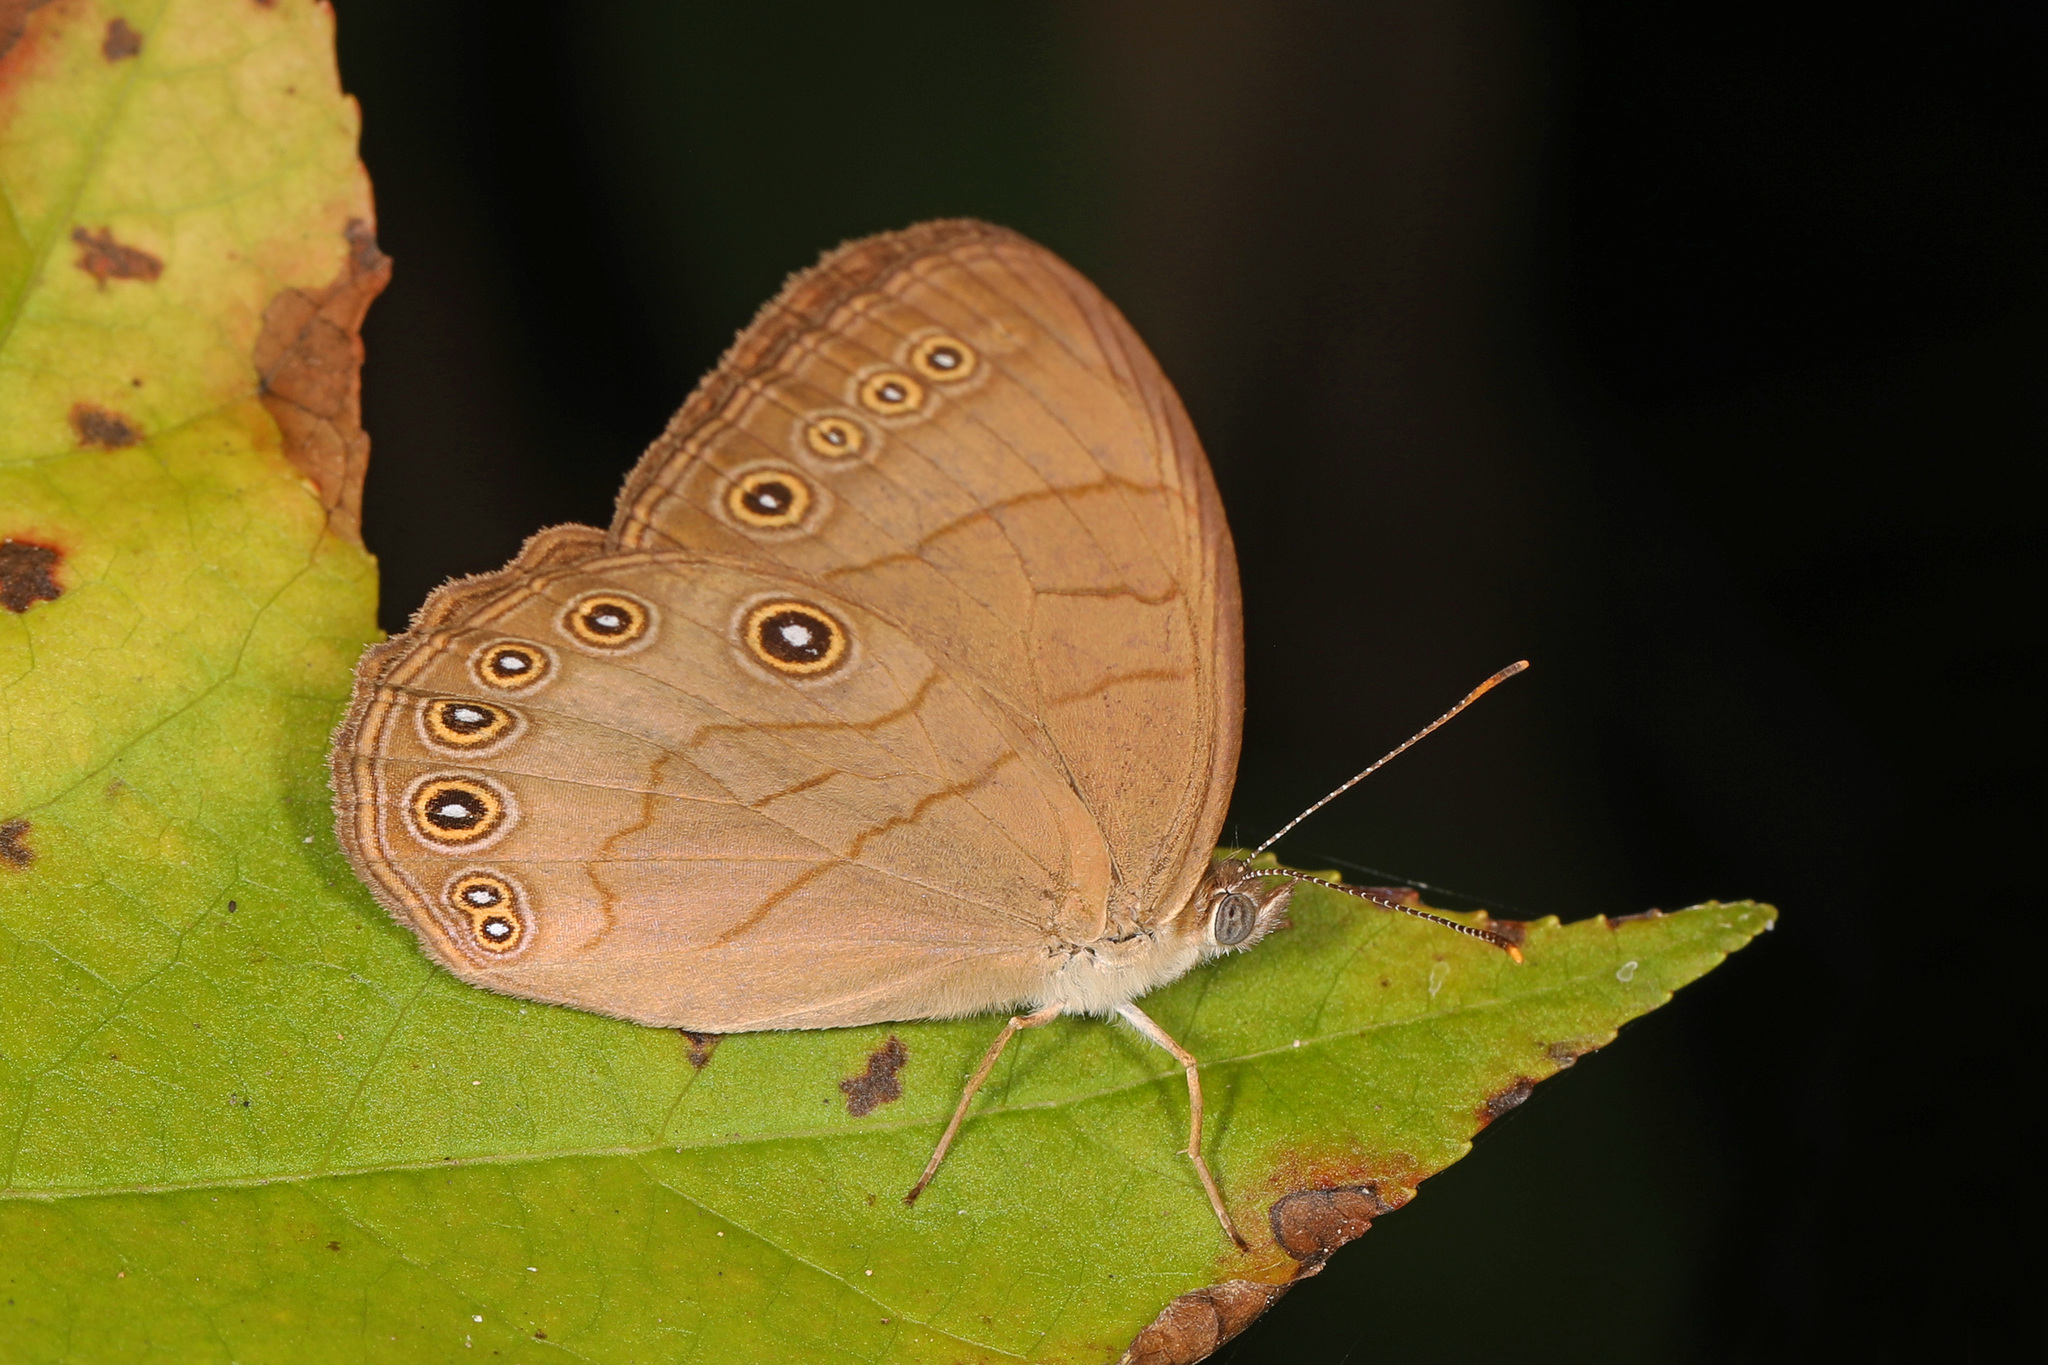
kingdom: Animalia
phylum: Arthropoda
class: Insecta
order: Lepidoptera
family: Nymphalidae
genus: Lethe
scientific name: Lethe eurydice
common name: Eyed brown
